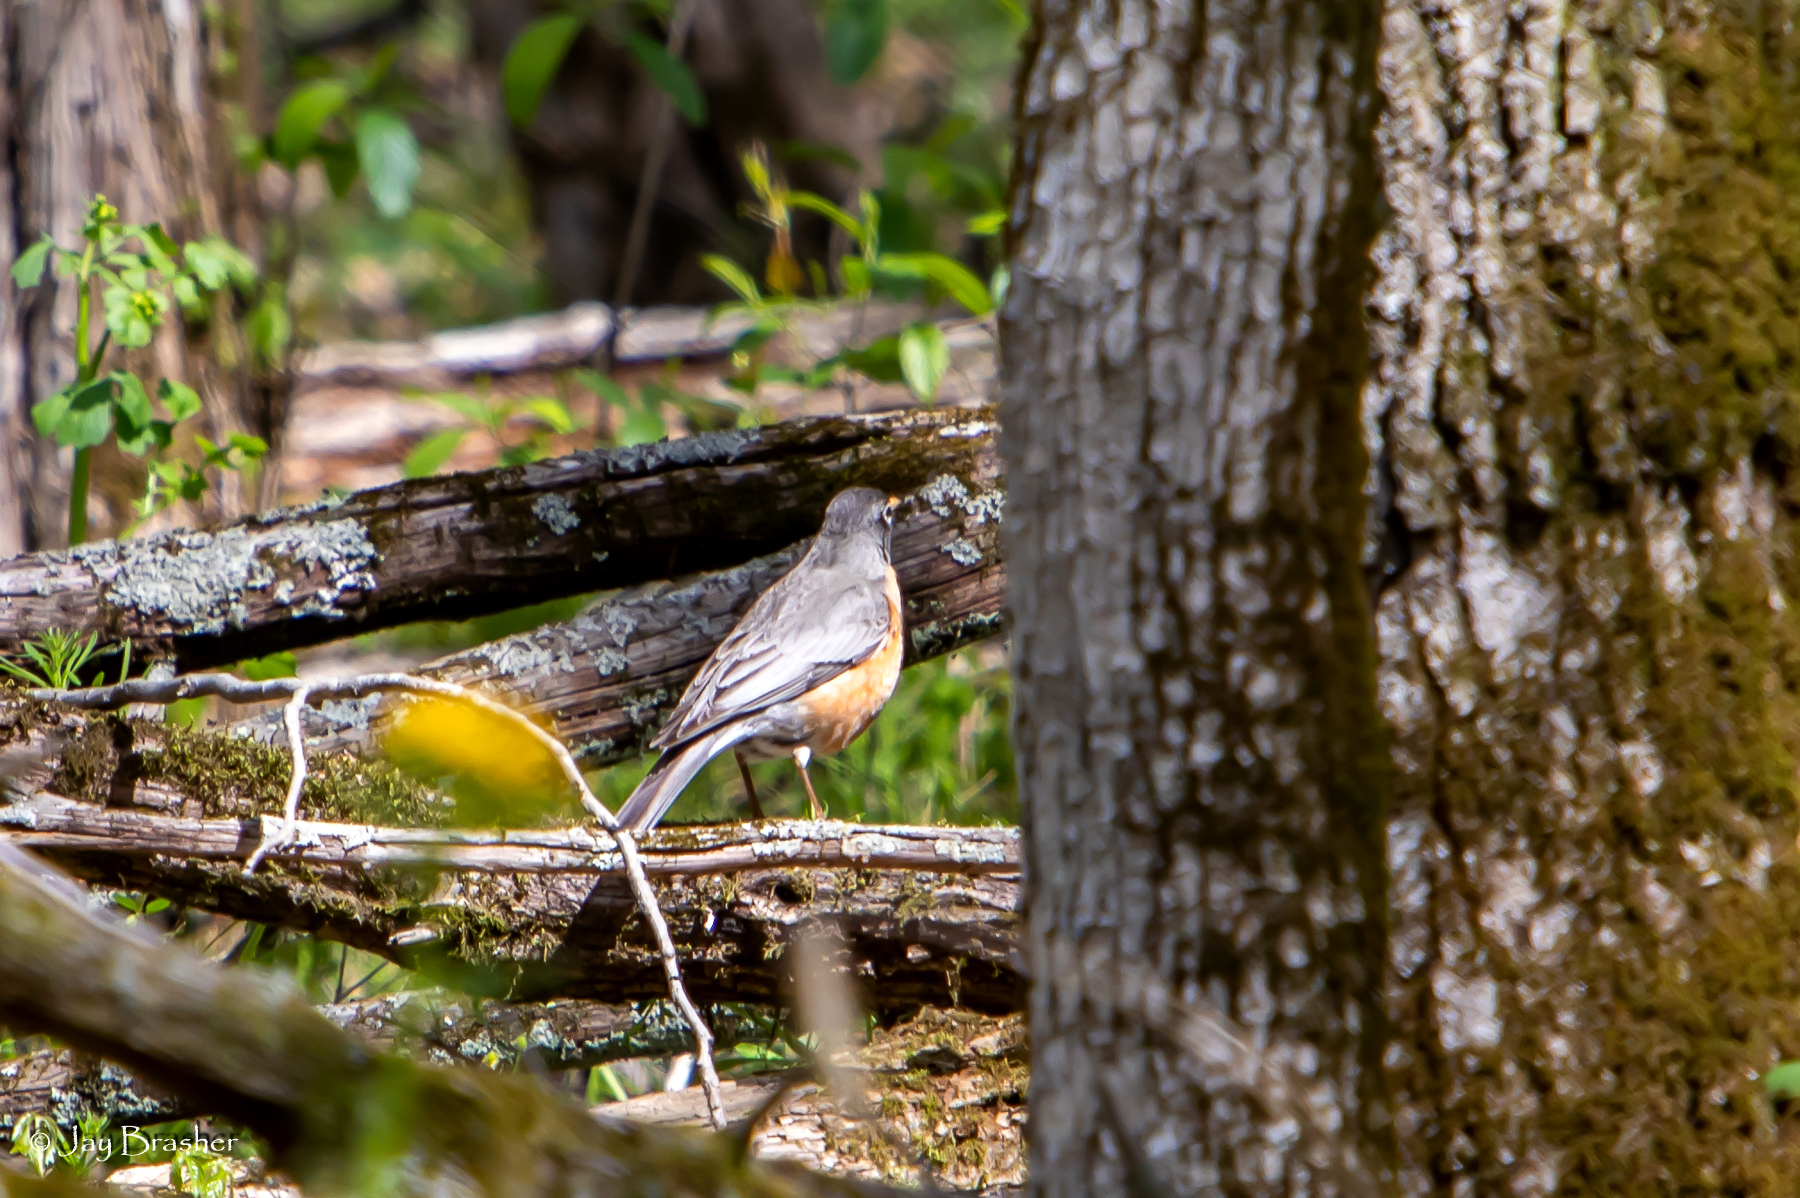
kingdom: Animalia
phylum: Chordata
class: Aves
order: Passeriformes
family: Turdidae
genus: Turdus
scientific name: Turdus migratorius
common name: American robin
